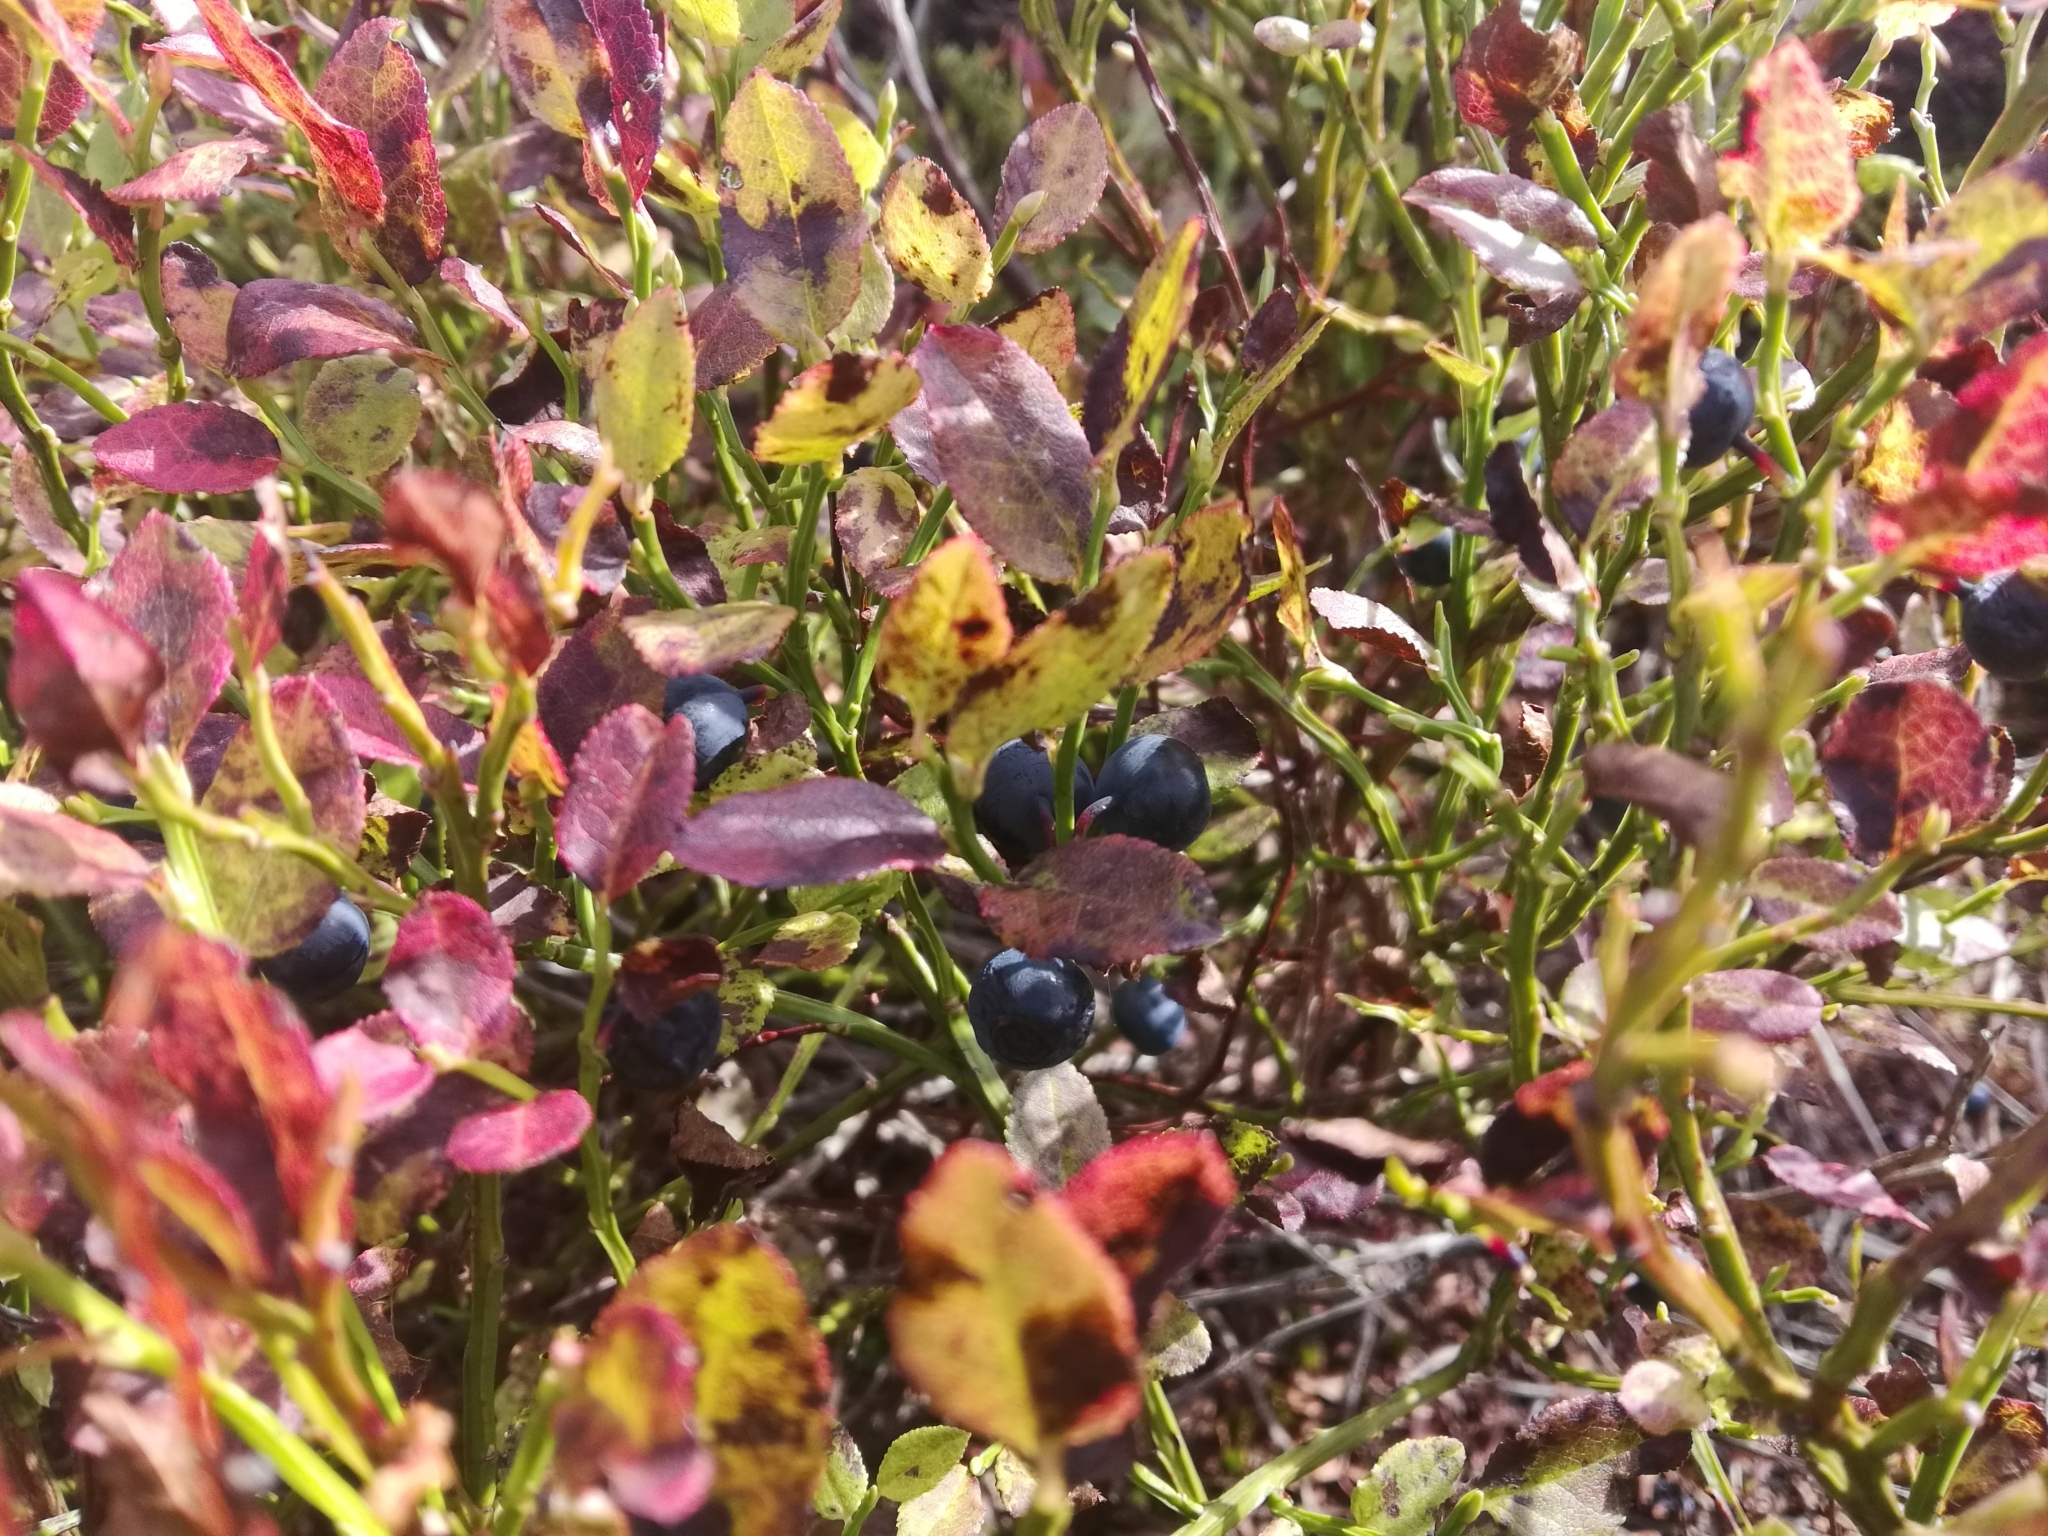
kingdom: Plantae
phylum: Tracheophyta
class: Magnoliopsida
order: Ericales
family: Ericaceae
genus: Vaccinium
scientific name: Vaccinium myrtillus
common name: Bilberry
